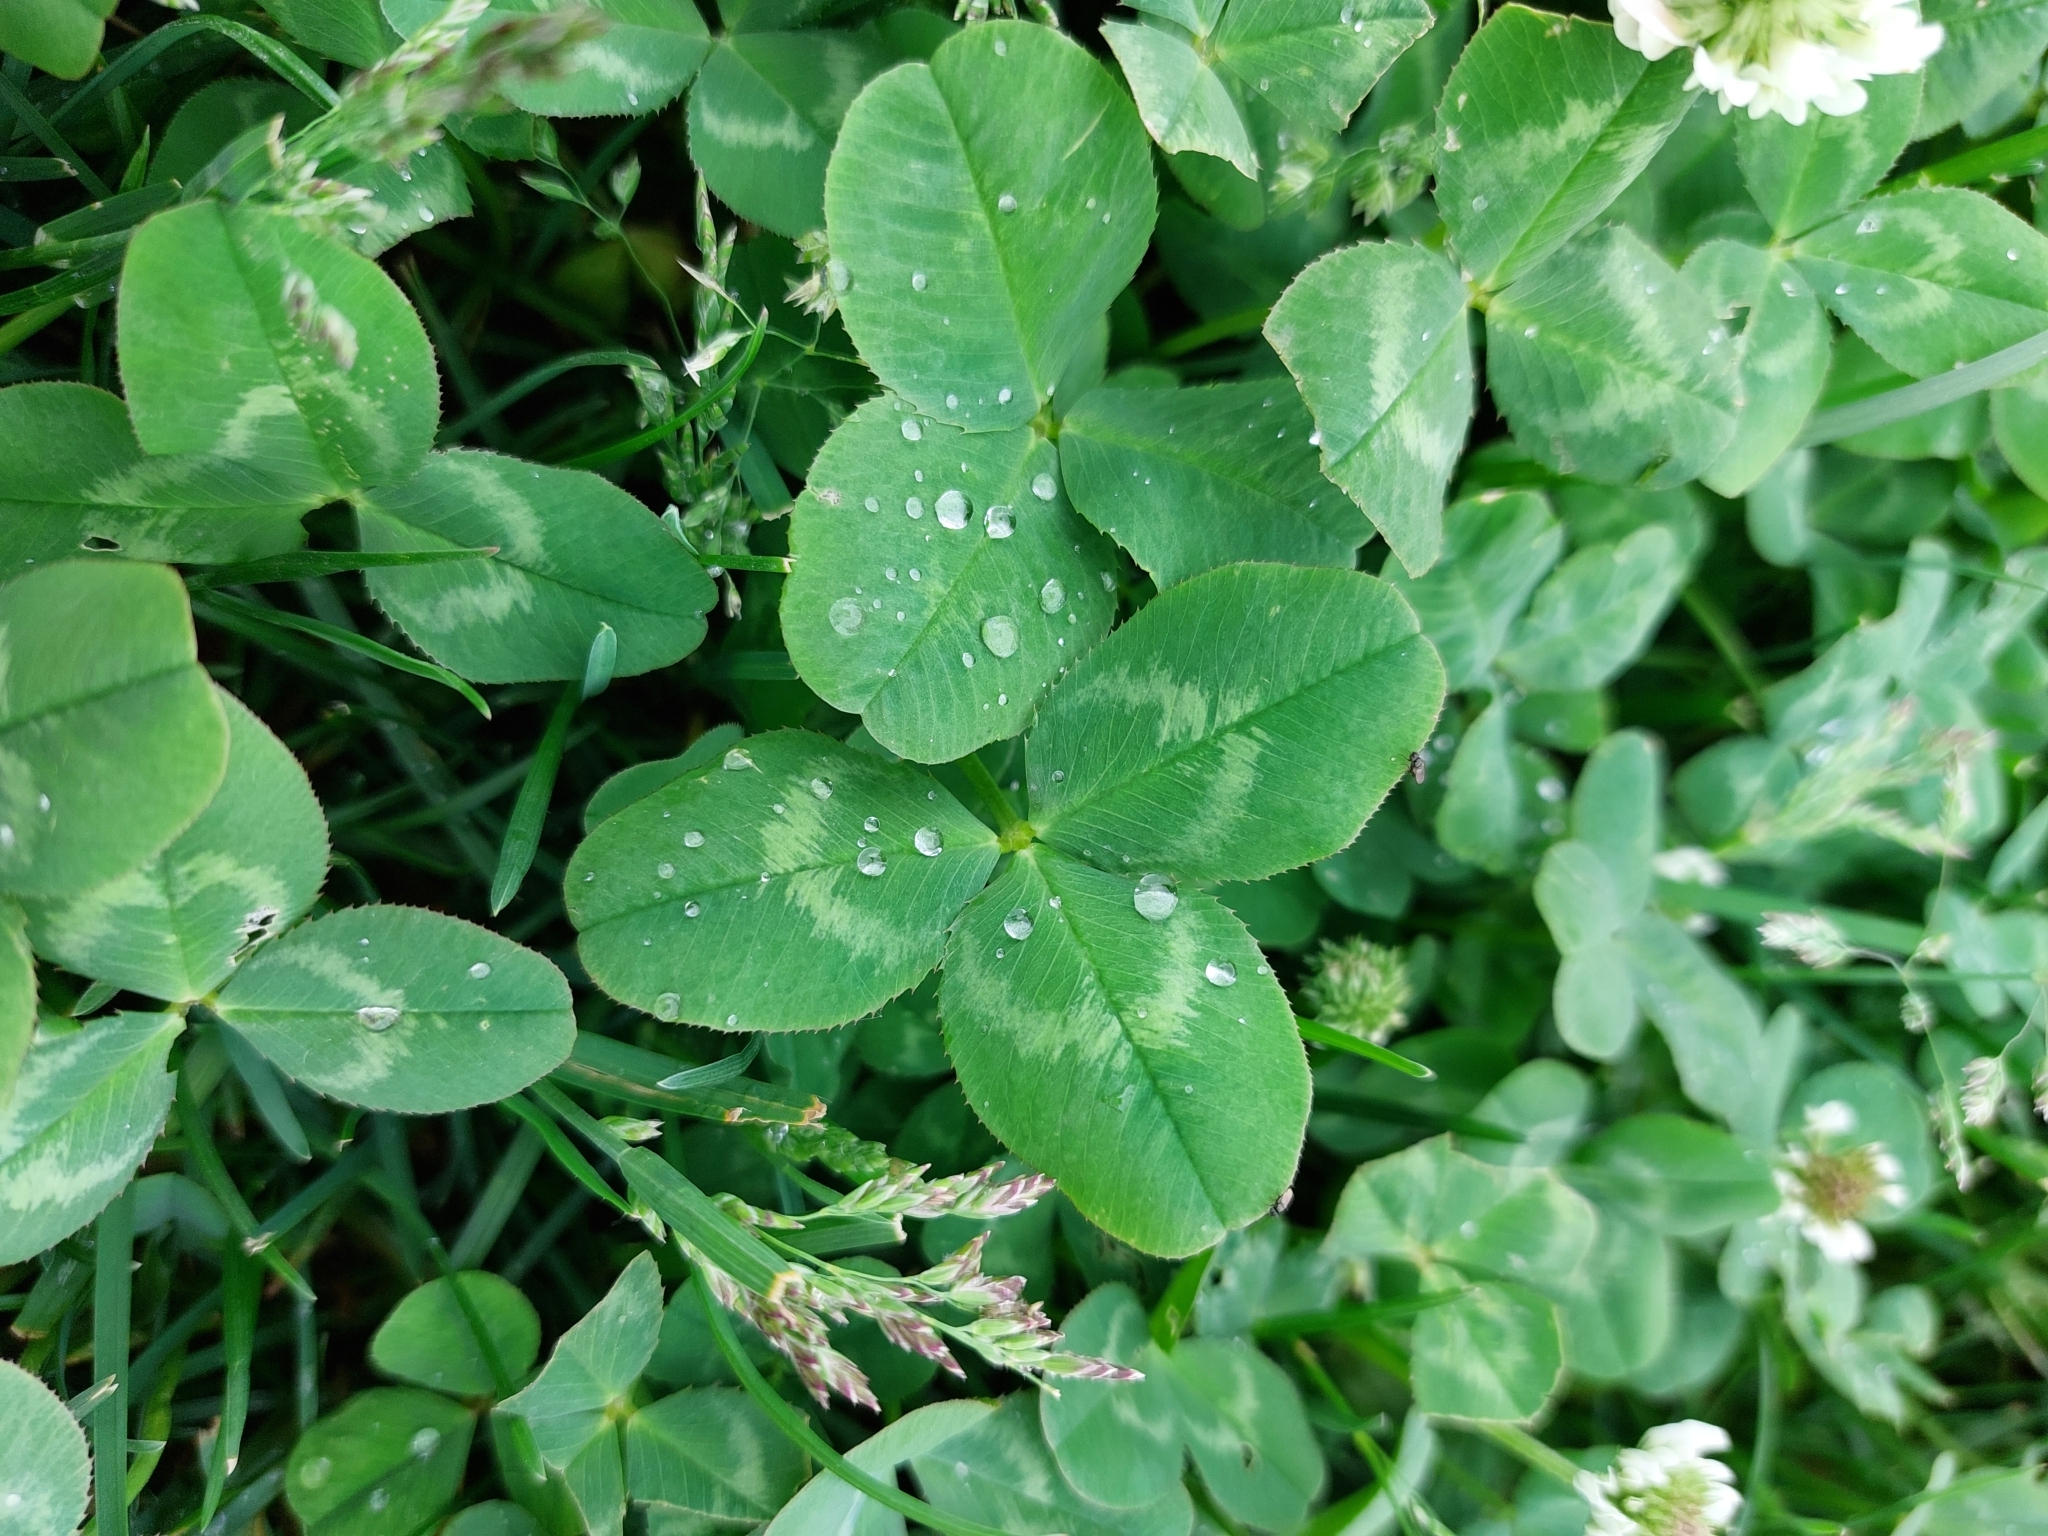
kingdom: Plantae
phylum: Tracheophyta
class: Magnoliopsida
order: Fabales
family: Fabaceae
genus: Trifolium
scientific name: Trifolium repens
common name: White clover
